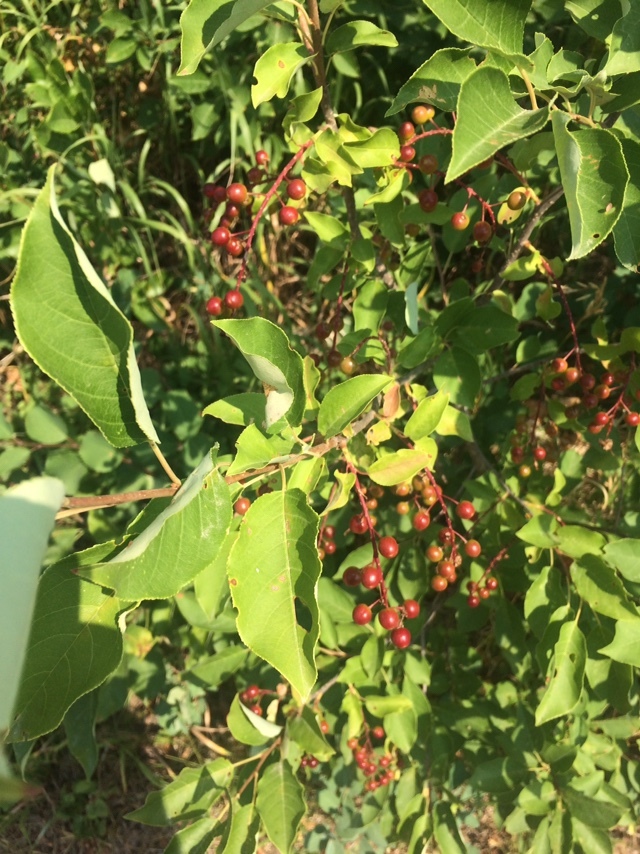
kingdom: Plantae
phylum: Tracheophyta
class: Magnoliopsida
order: Rosales
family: Rosaceae
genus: Prunus
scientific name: Prunus virginiana
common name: Chokecherry
